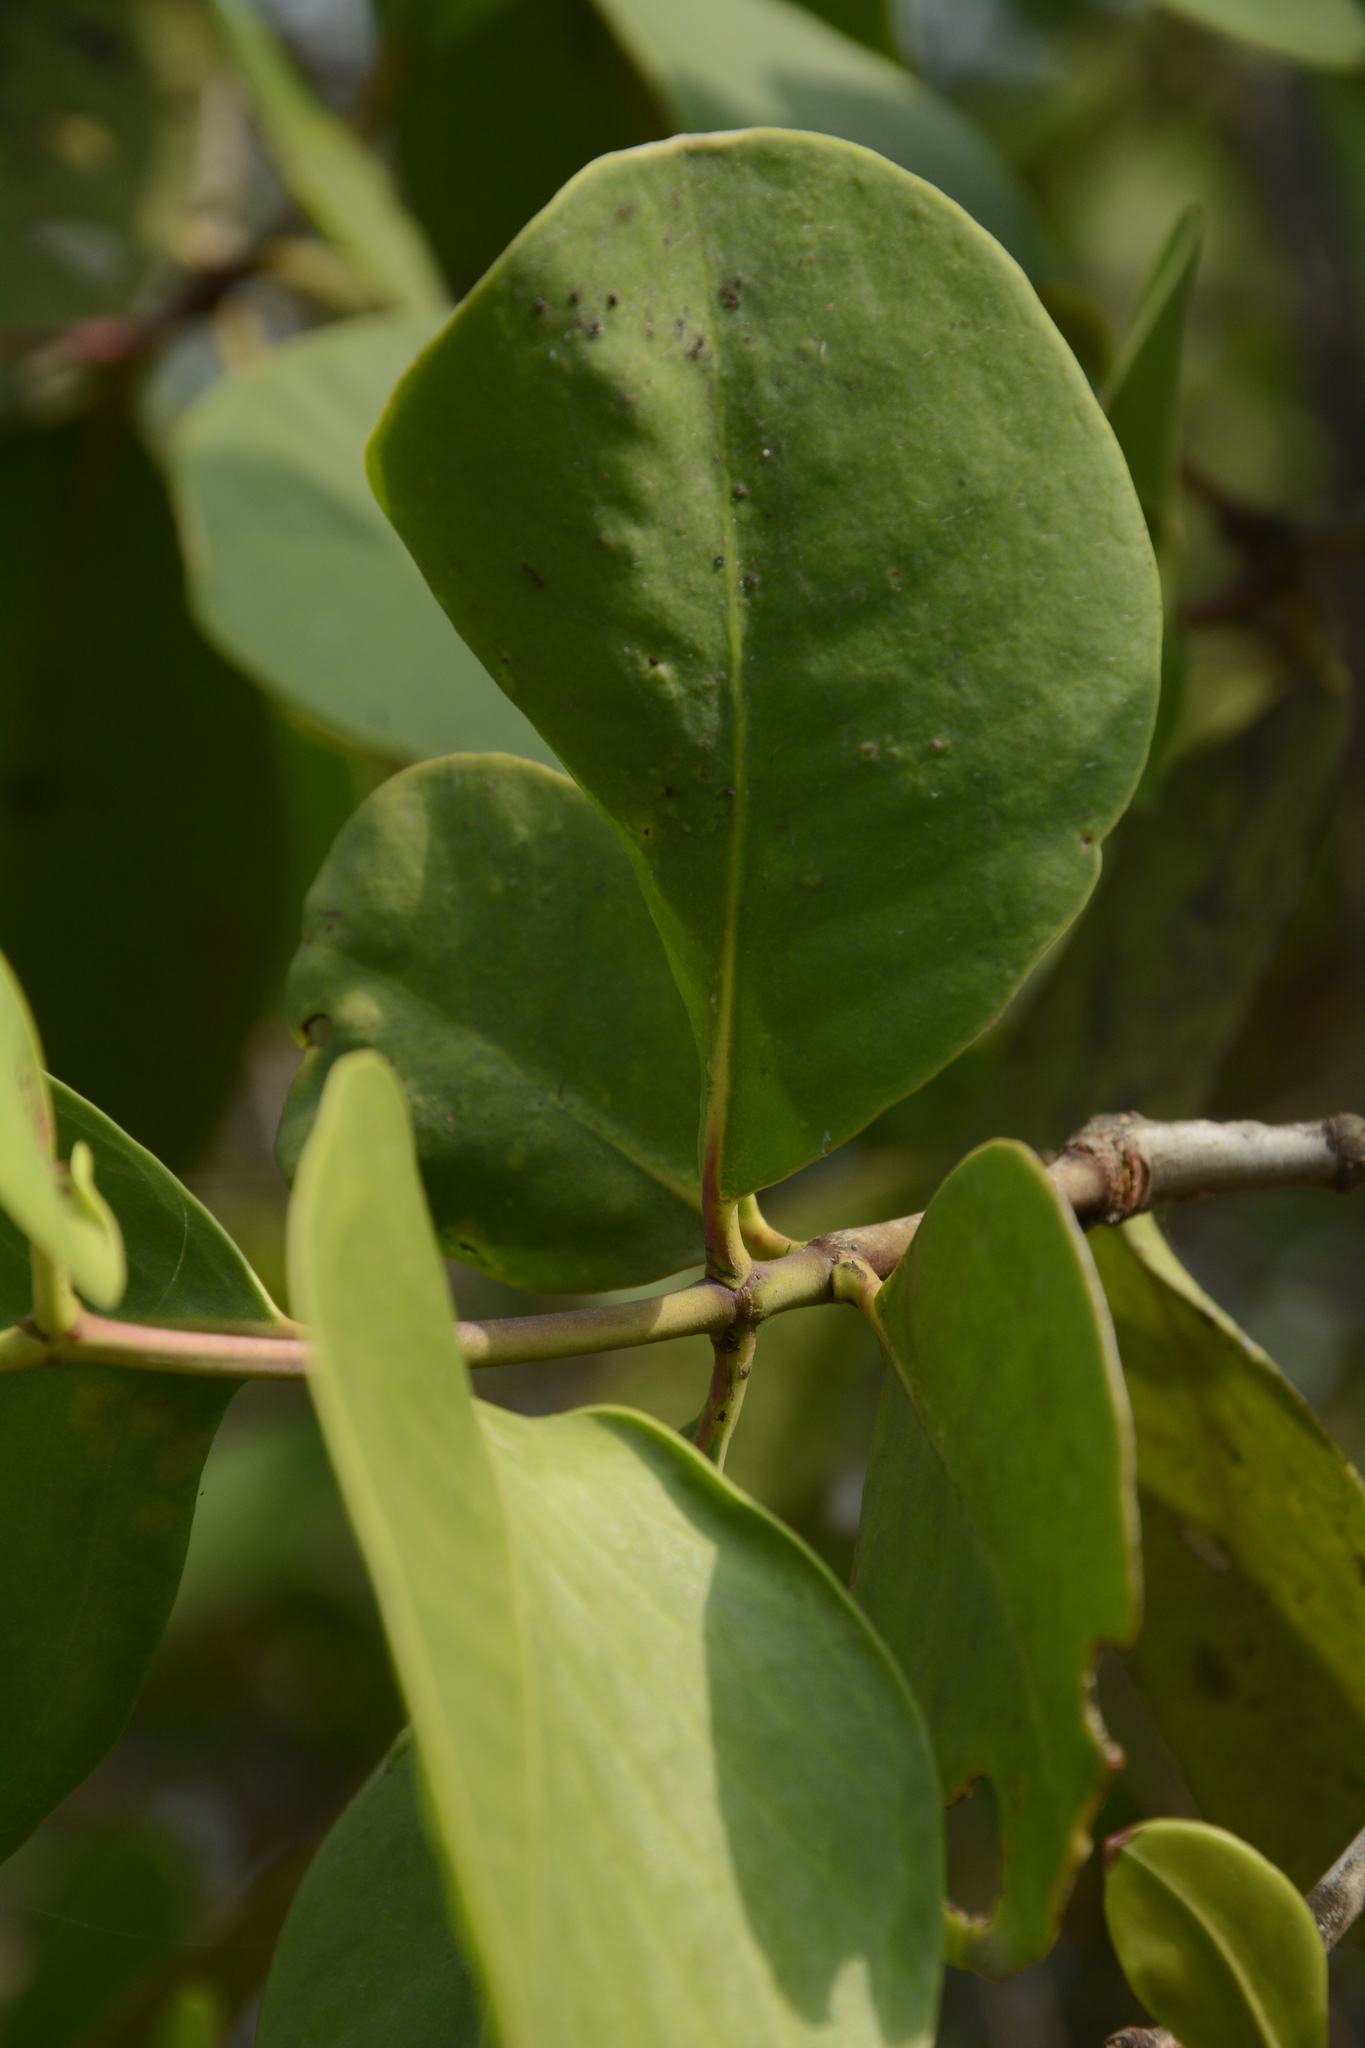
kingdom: Plantae
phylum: Tracheophyta
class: Magnoliopsida
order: Myrtales
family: Lythraceae
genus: Sonneratia
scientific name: Sonneratia alba
